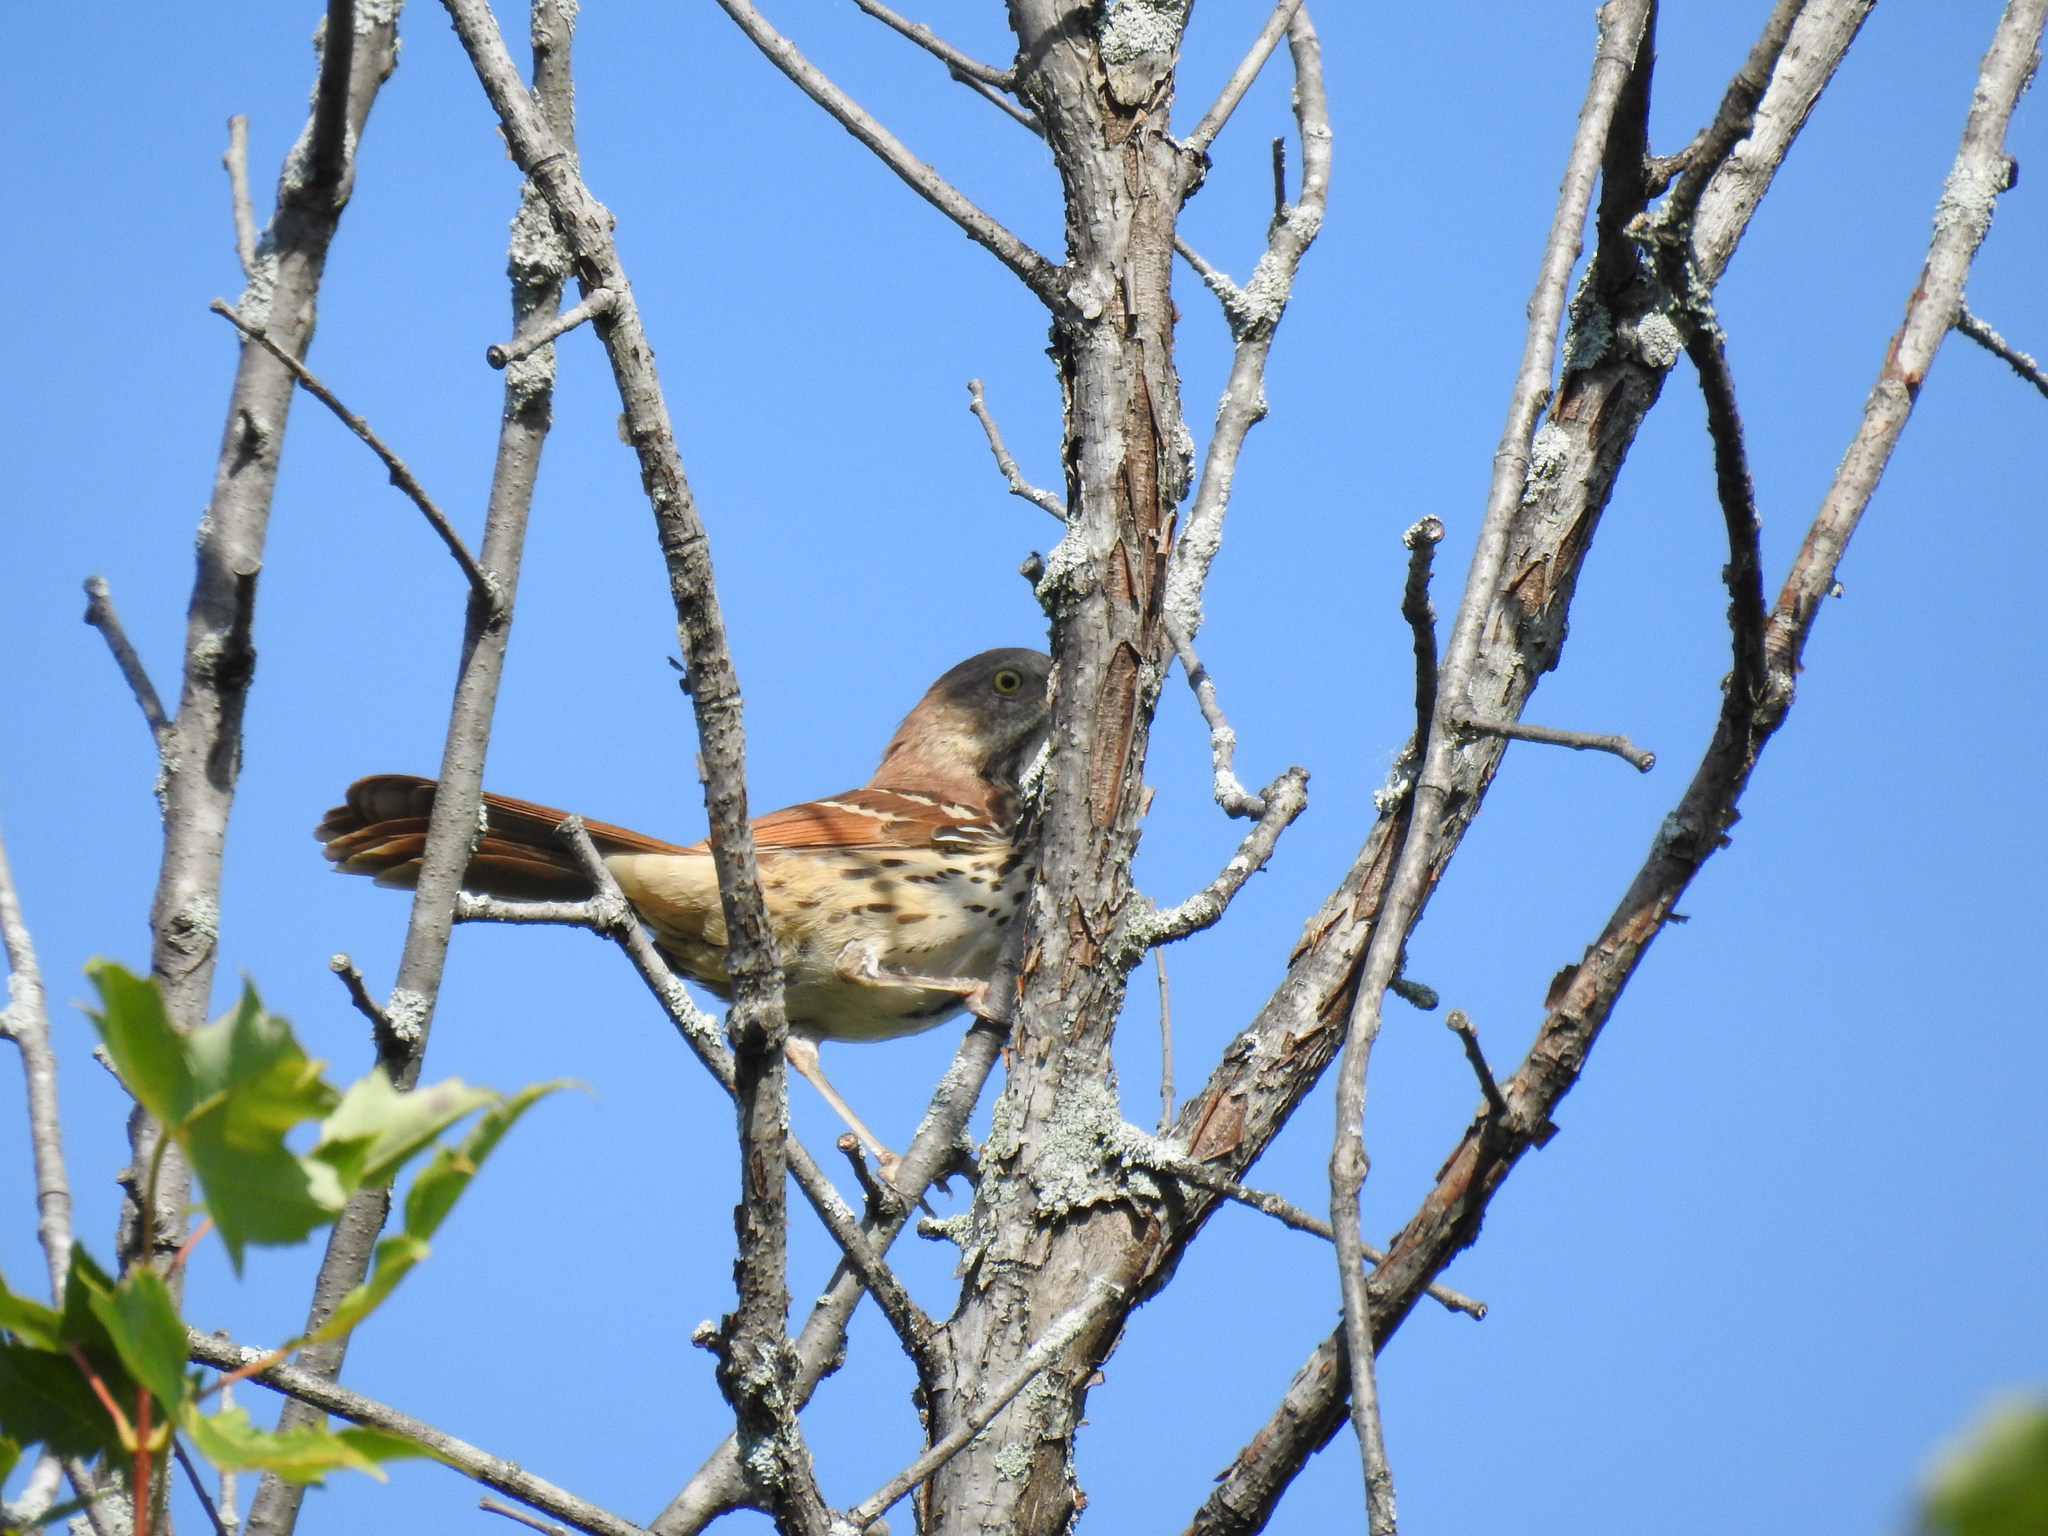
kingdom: Animalia
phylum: Chordata
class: Aves
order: Passeriformes
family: Mimidae
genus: Toxostoma
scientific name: Toxostoma rufum
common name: Brown thrasher
